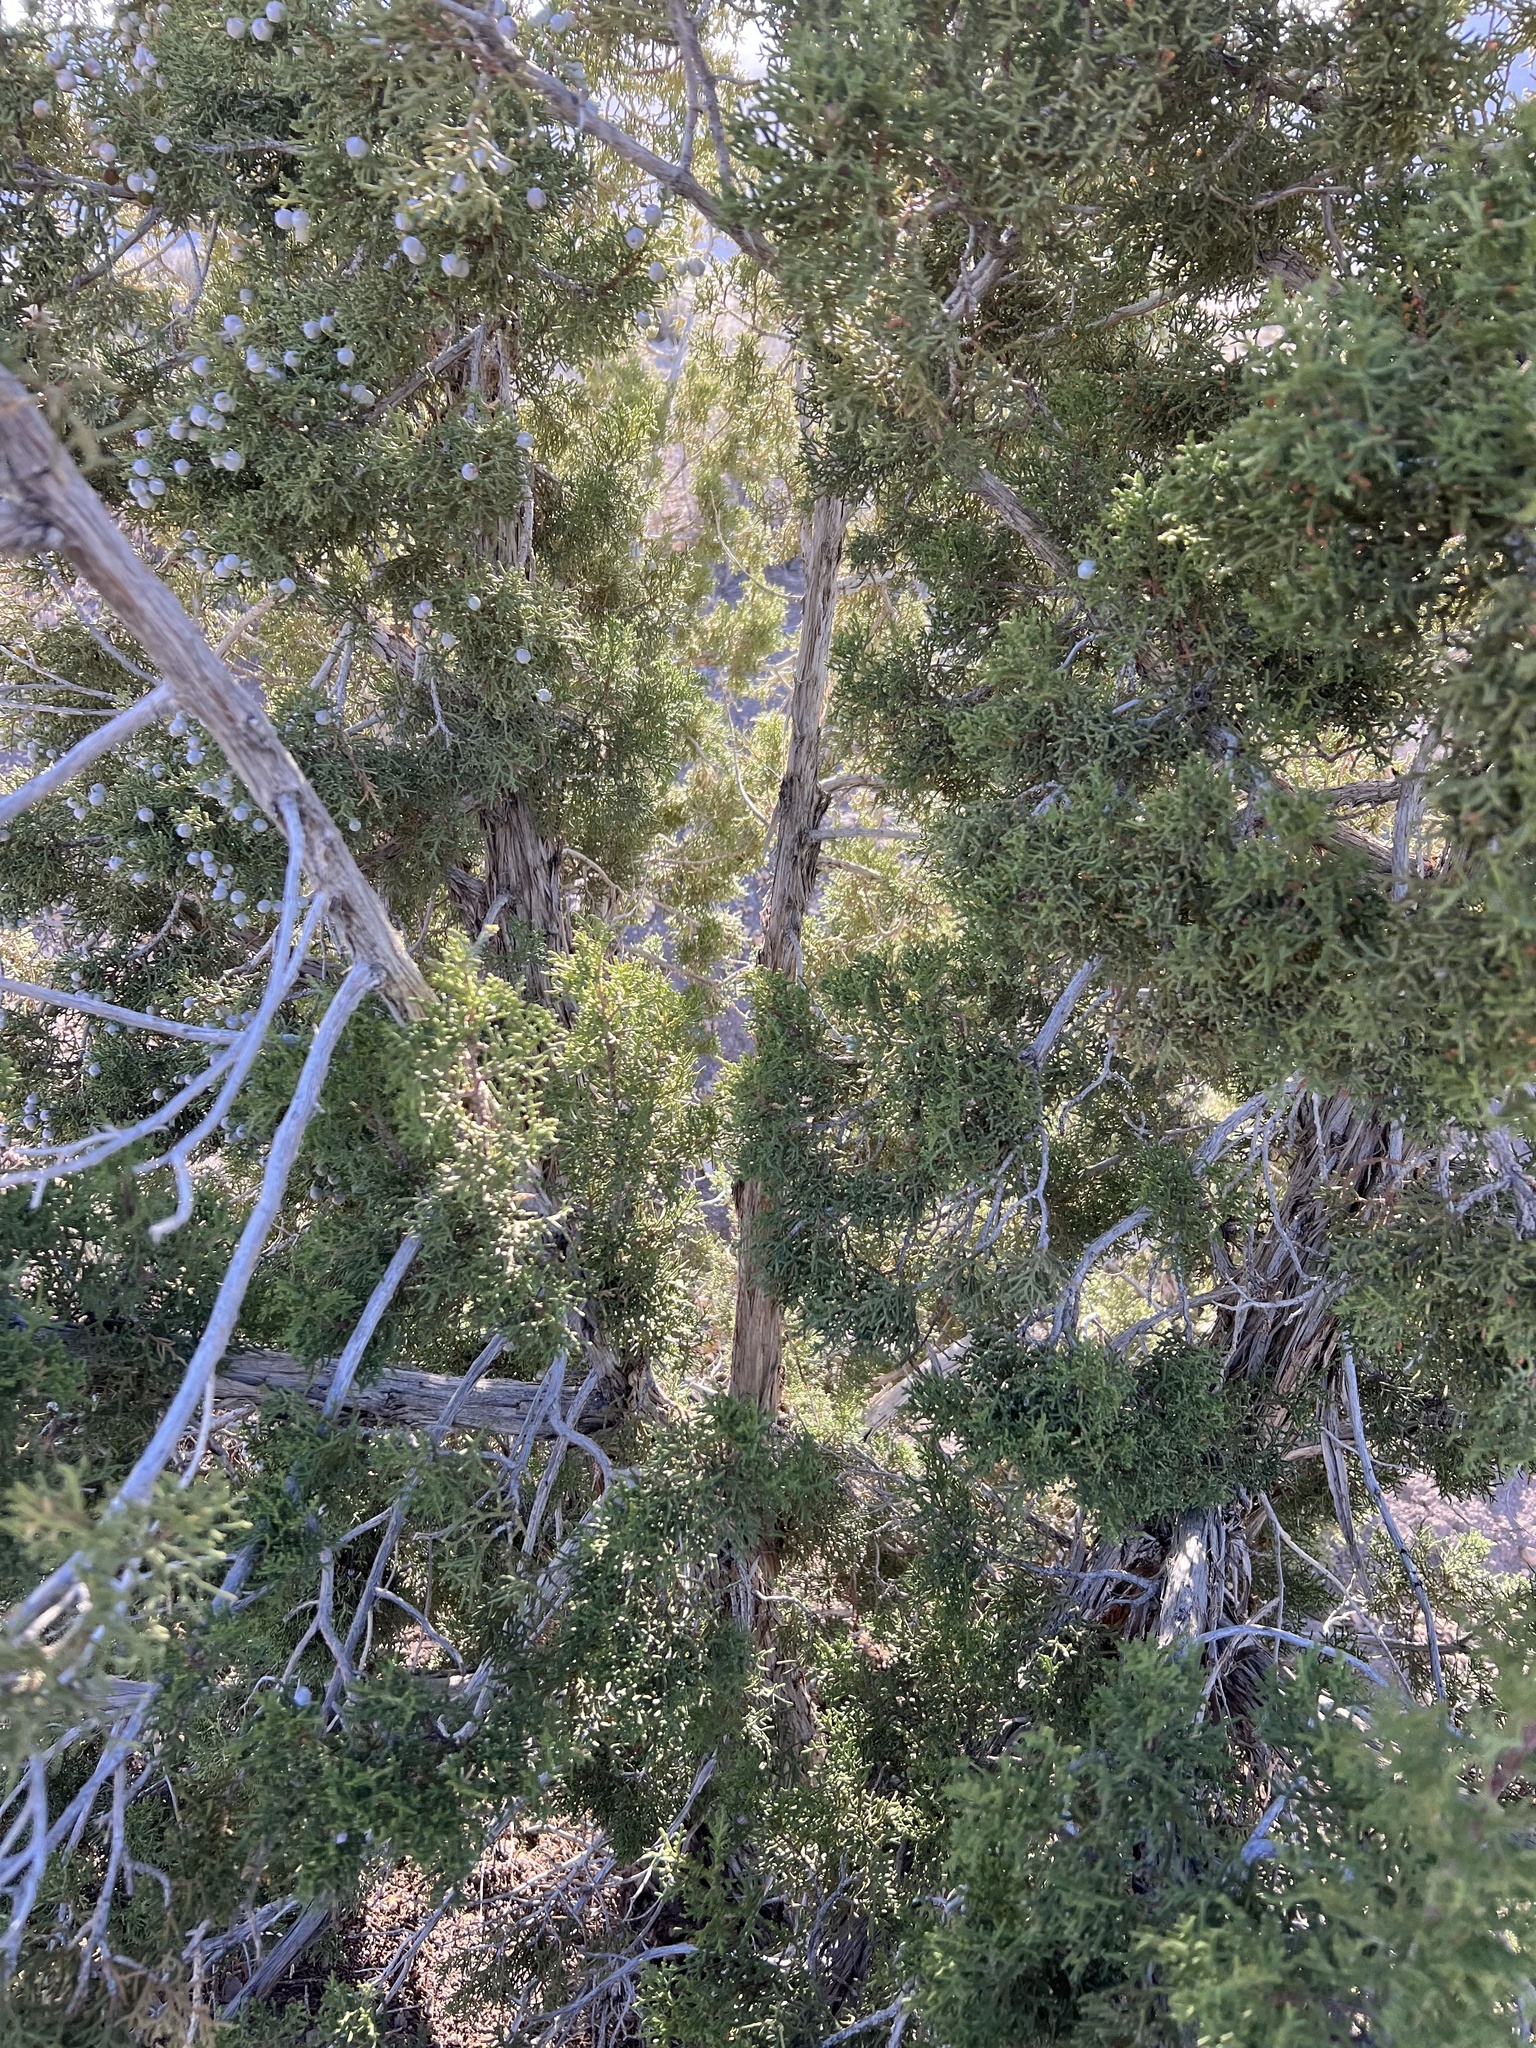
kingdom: Plantae
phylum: Tracheophyta
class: Pinopsida
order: Pinales
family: Cupressaceae
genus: Juniperus
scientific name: Juniperus osteosperma
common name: Utah juniper
